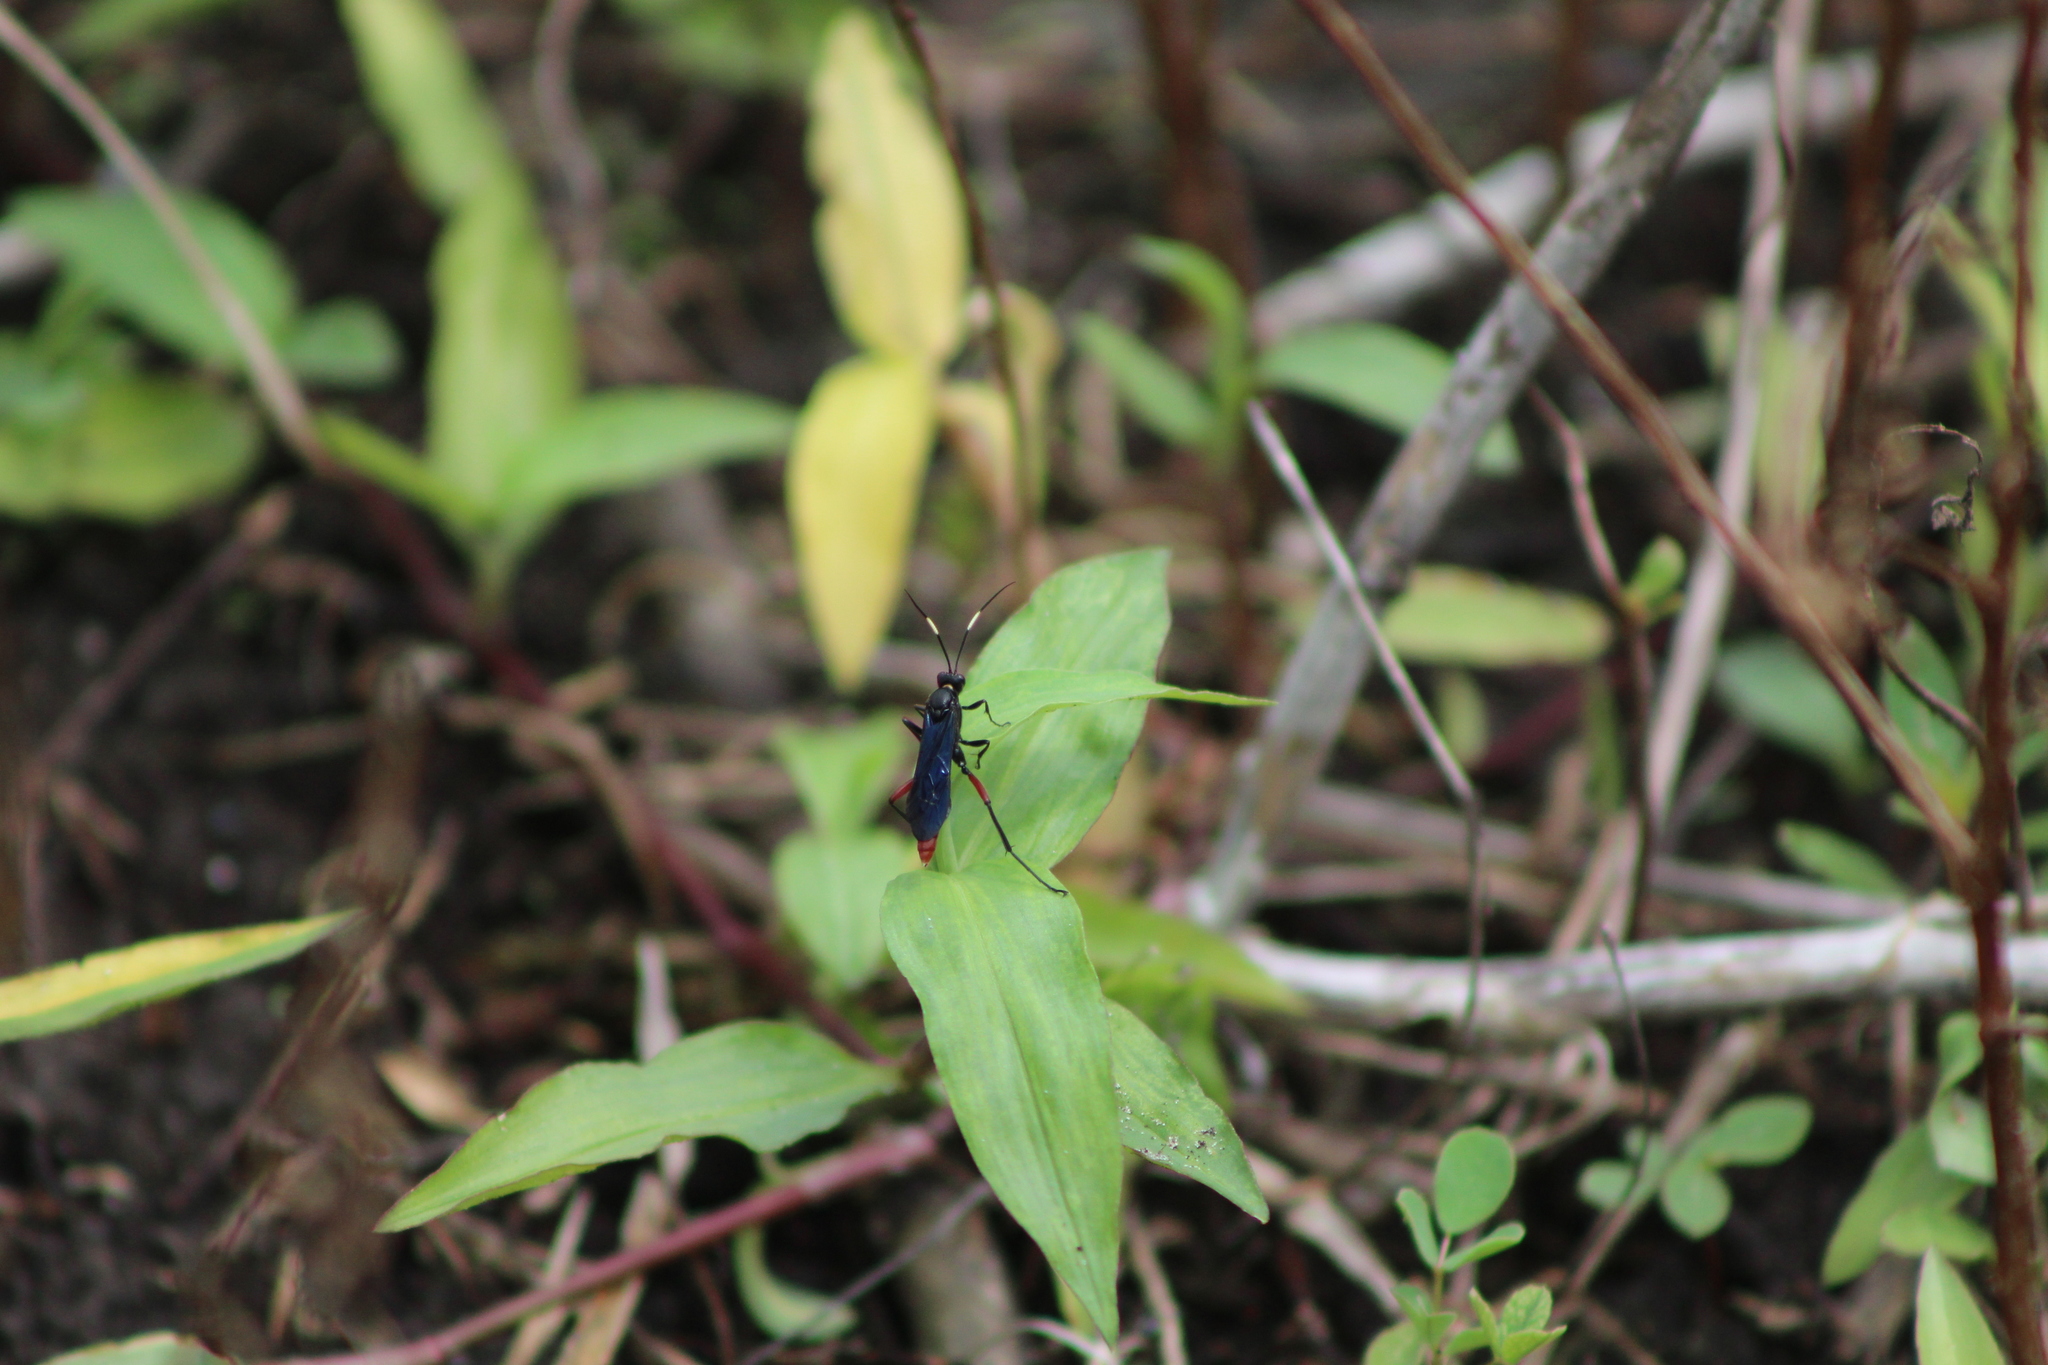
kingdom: Animalia
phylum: Arthropoda
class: Insecta
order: Hymenoptera
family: Ichneumonidae
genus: Limonethe
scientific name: Limonethe maurator
